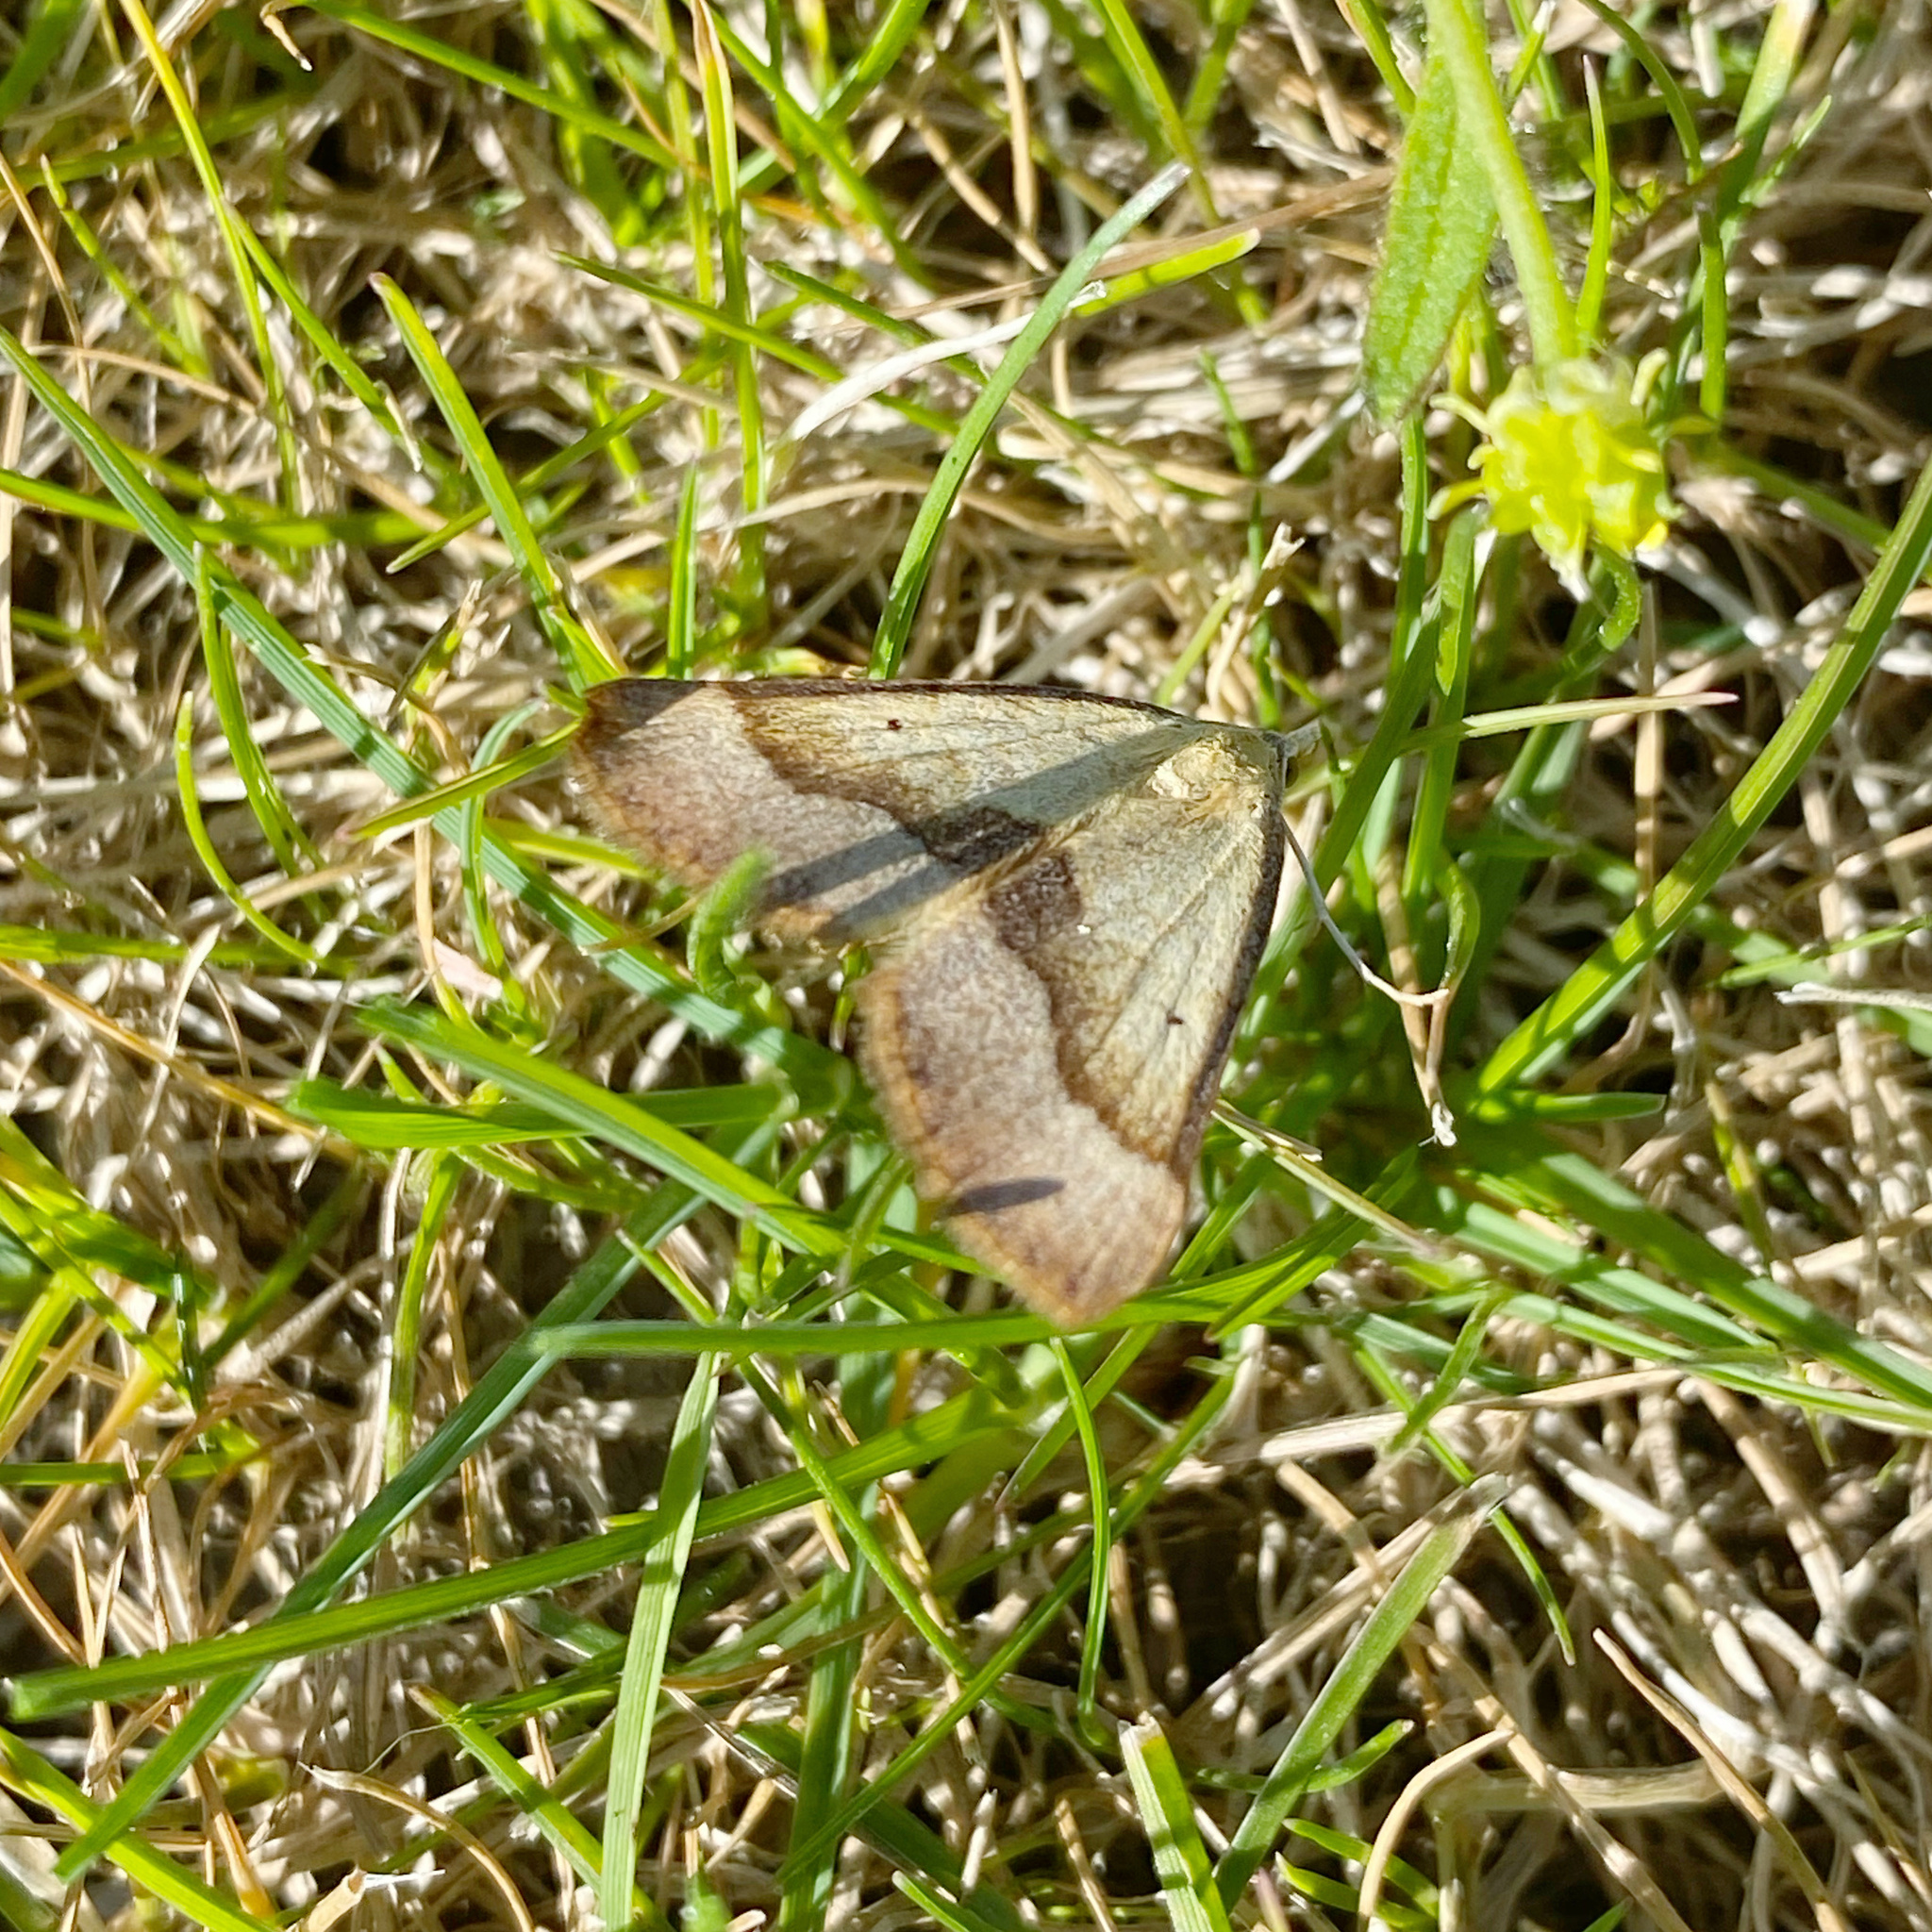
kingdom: Animalia
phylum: Arthropoda
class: Insecta
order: Lepidoptera
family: Geometridae
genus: Anachloris
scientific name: Anachloris subochraria
